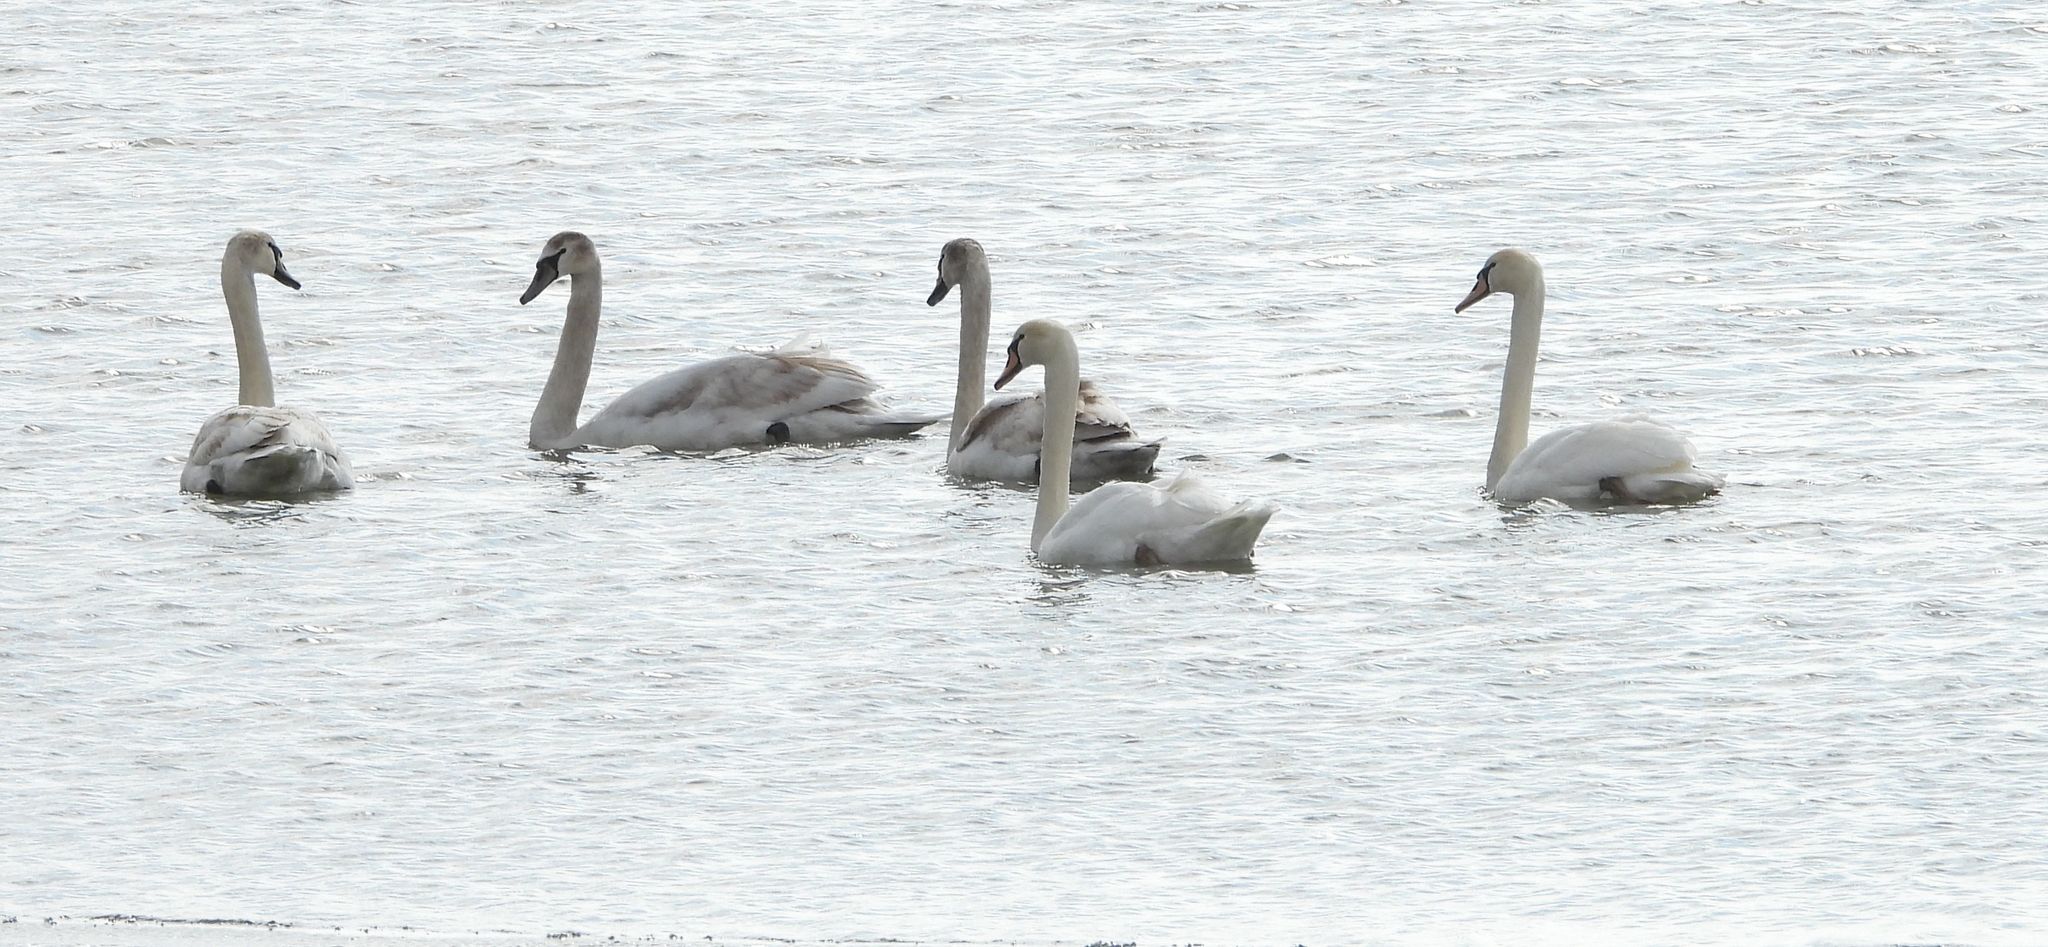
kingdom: Animalia
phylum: Chordata
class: Aves
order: Anseriformes
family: Anatidae
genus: Cygnus
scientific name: Cygnus olor
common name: Mute swan
